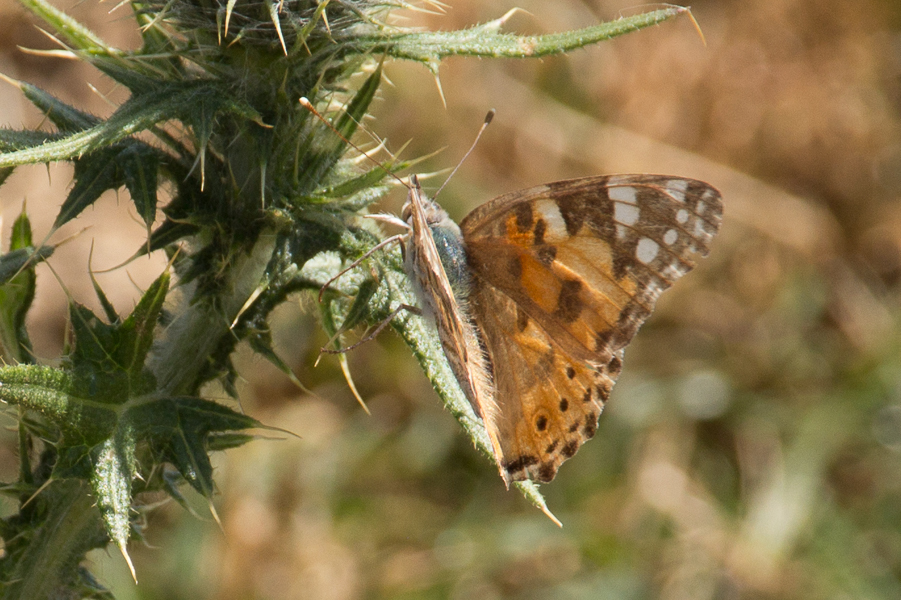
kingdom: Animalia
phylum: Arthropoda
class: Insecta
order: Lepidoptera
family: Nymphalidae
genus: Vanessa
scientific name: Vanessa cardui
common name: Painted lady
